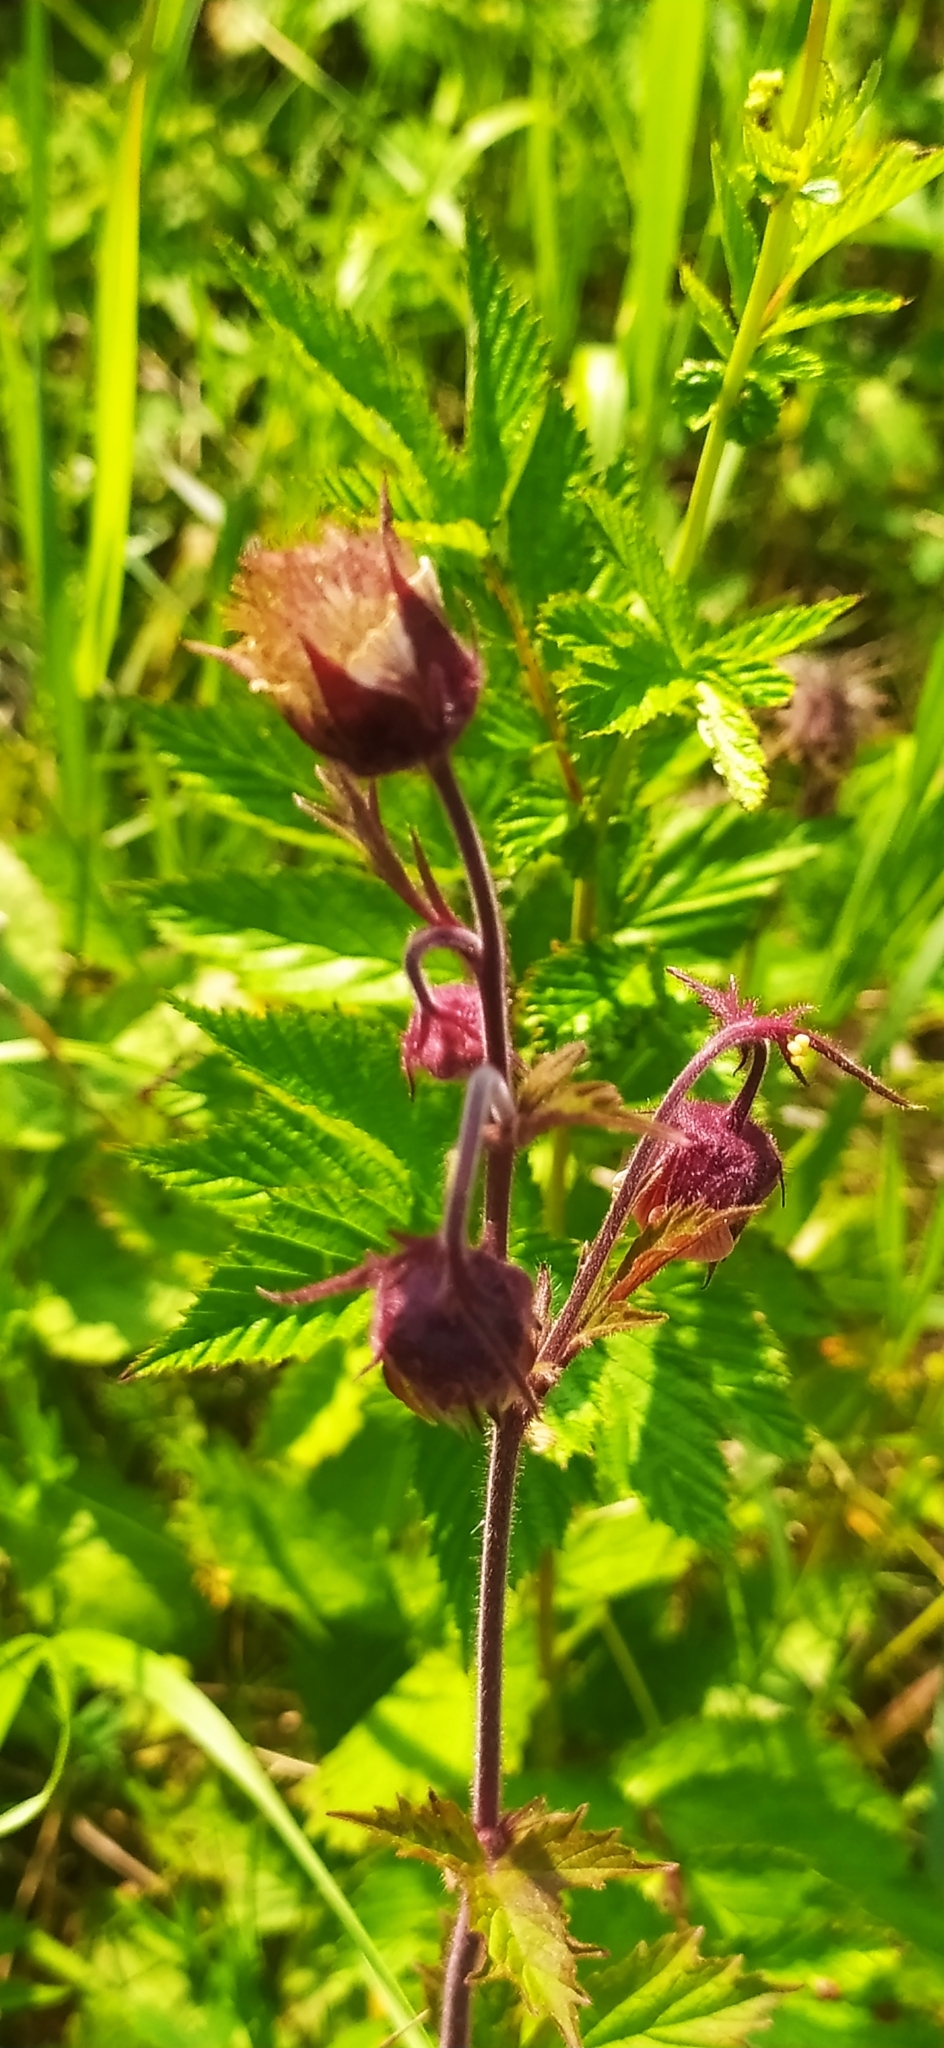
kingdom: Plantae
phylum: Tracheophyta
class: Magnoliopsida
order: Rosales
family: Rosaceae
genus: Geum
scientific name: Geum rivale
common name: Water avens
